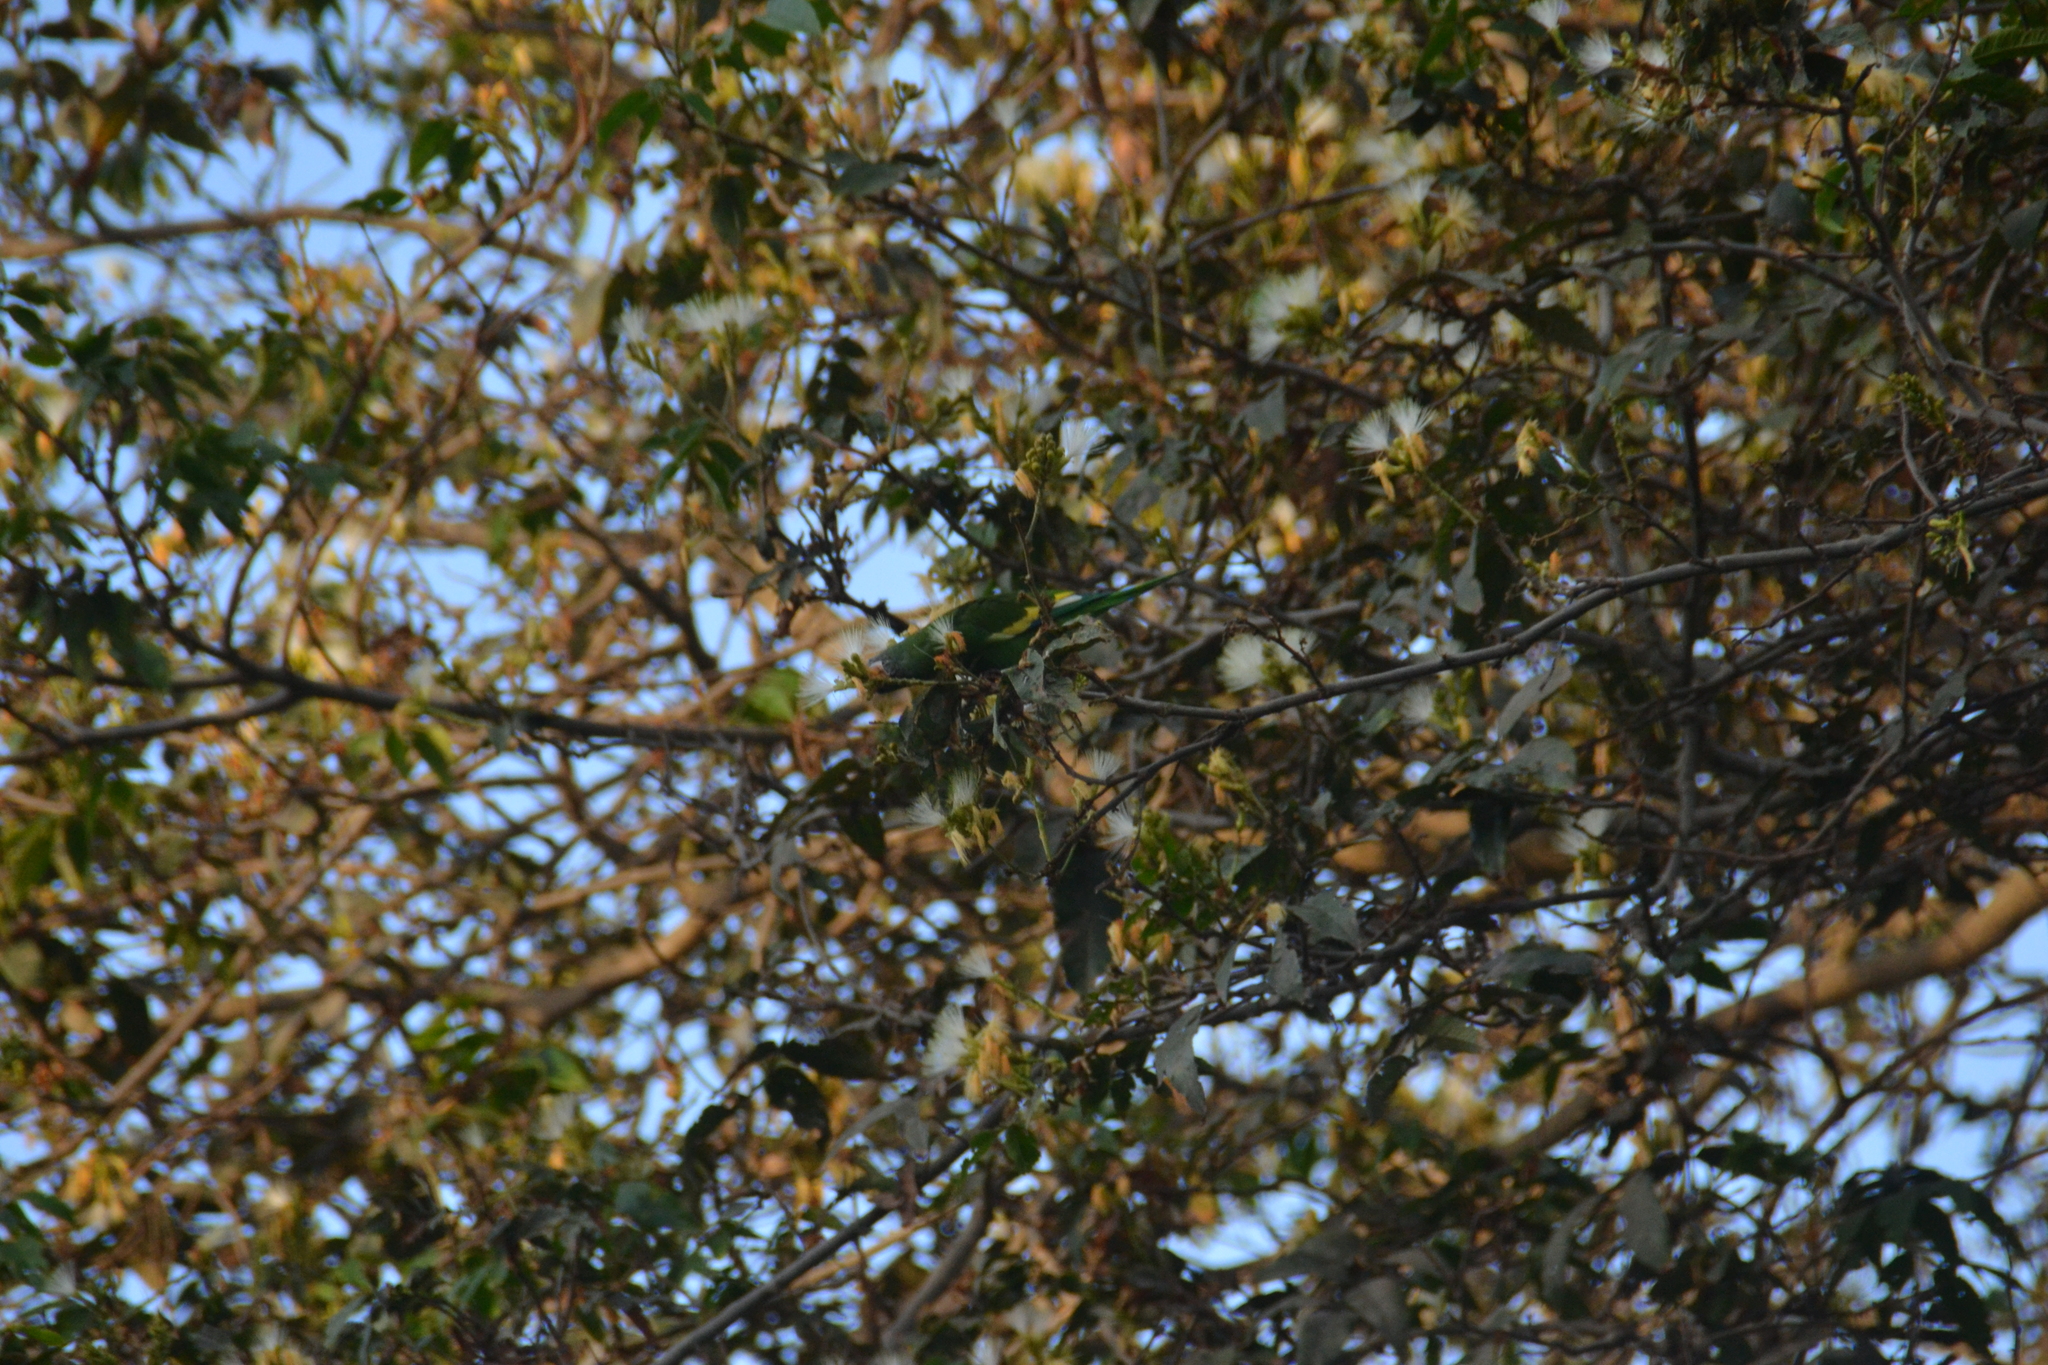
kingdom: Animalia
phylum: Chordata
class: Aves
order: Psittaciformes
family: Psittacidae
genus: Brotogeris
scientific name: Brotogeris versicolurus
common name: White-winged parakeet
